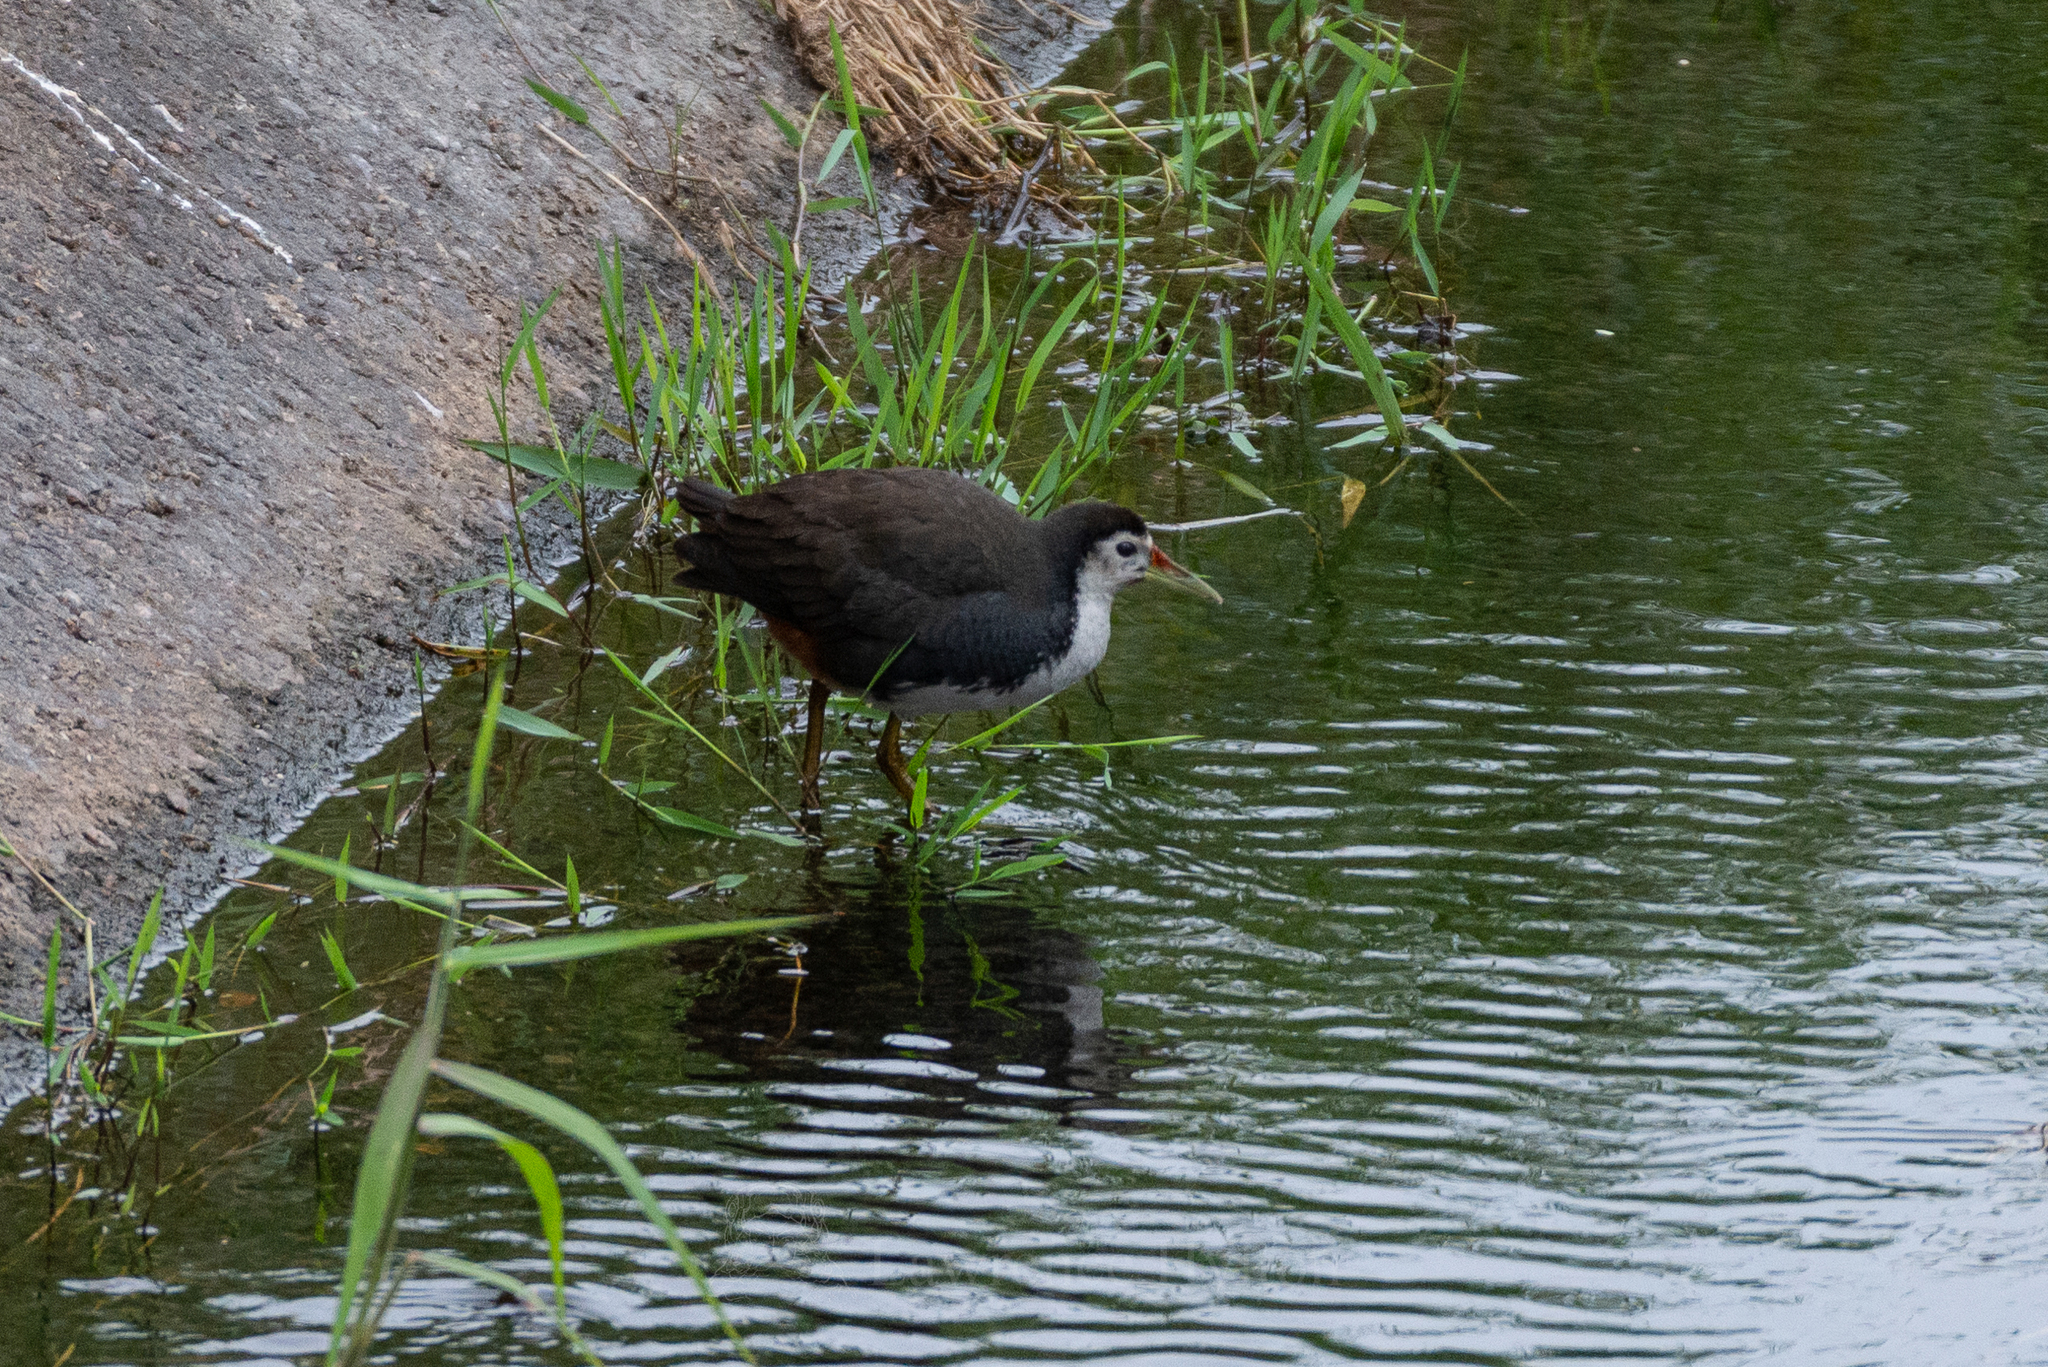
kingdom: Animalia
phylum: Chordata
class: Aves
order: Gruiformes
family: Rallidae
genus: Amaurornis
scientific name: Amaurornis phoenicurus
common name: White-breasted waterhen
